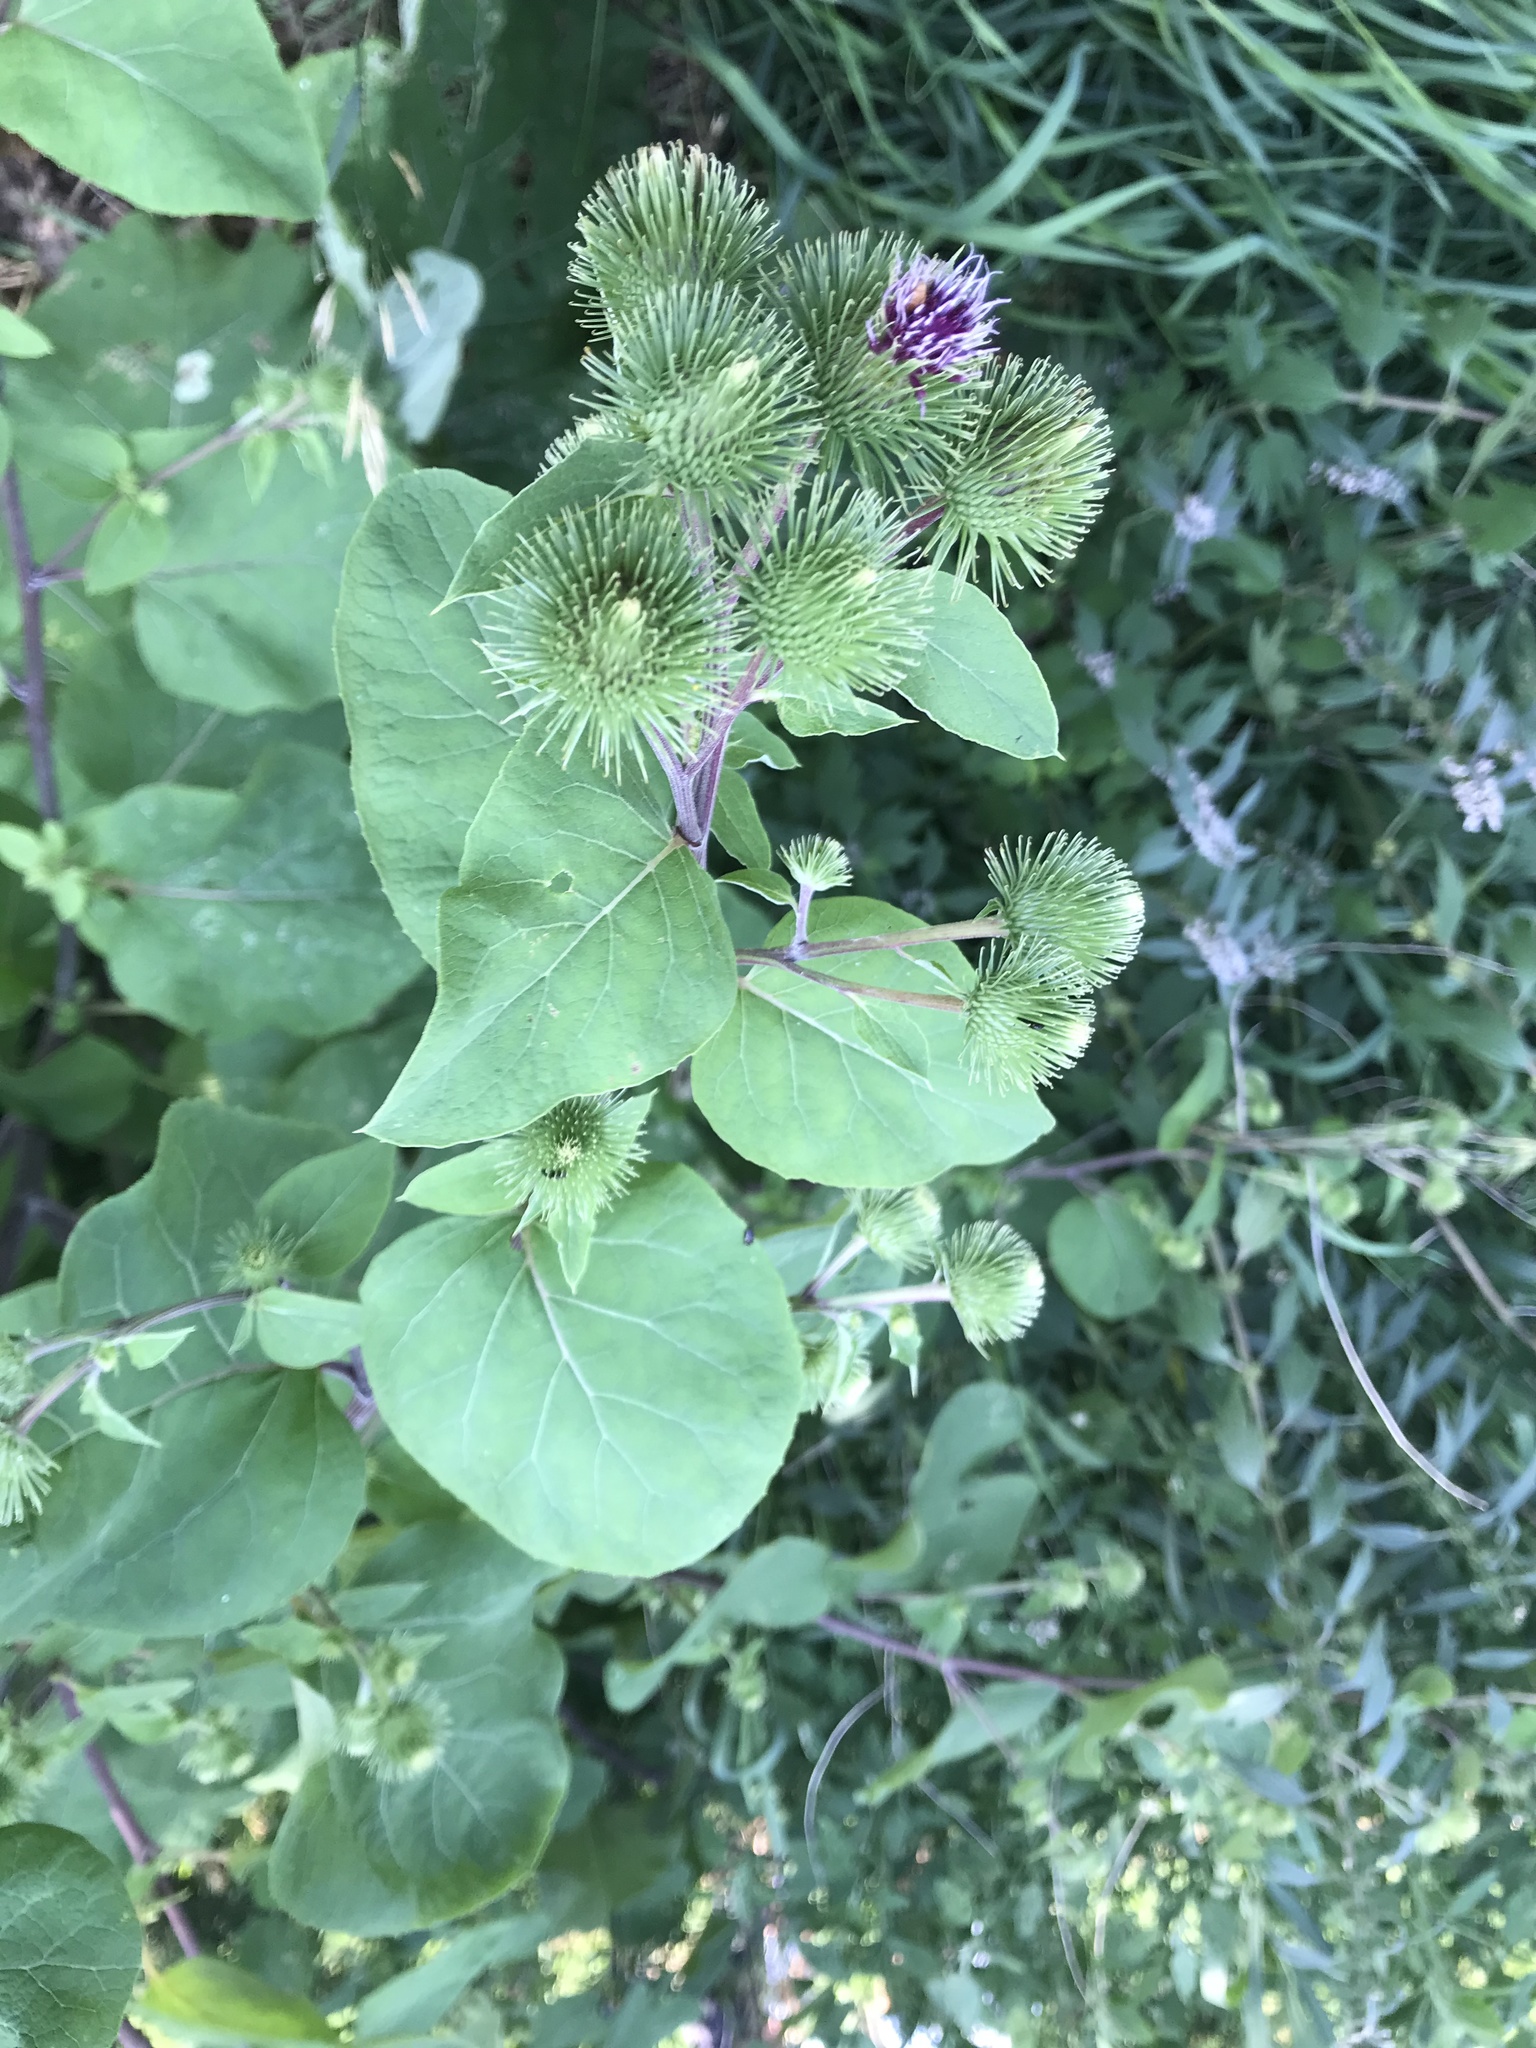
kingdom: Plantae
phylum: Tracheophyta
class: Magnoliopsida
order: Asterales
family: Asteraceae
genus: Arctium
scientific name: Arctium lappa
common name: Greater burdock
